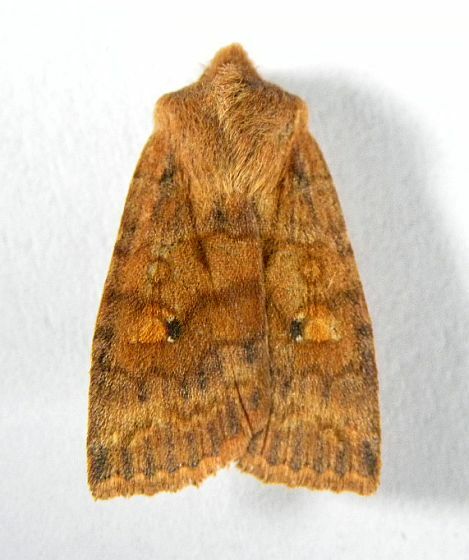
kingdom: Animalia
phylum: Arthropoda
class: Insecta
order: Lepidoptera
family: Noctuidae
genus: Eupsilia
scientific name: Eupsilia tristigmata
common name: Three-spotted sallow
